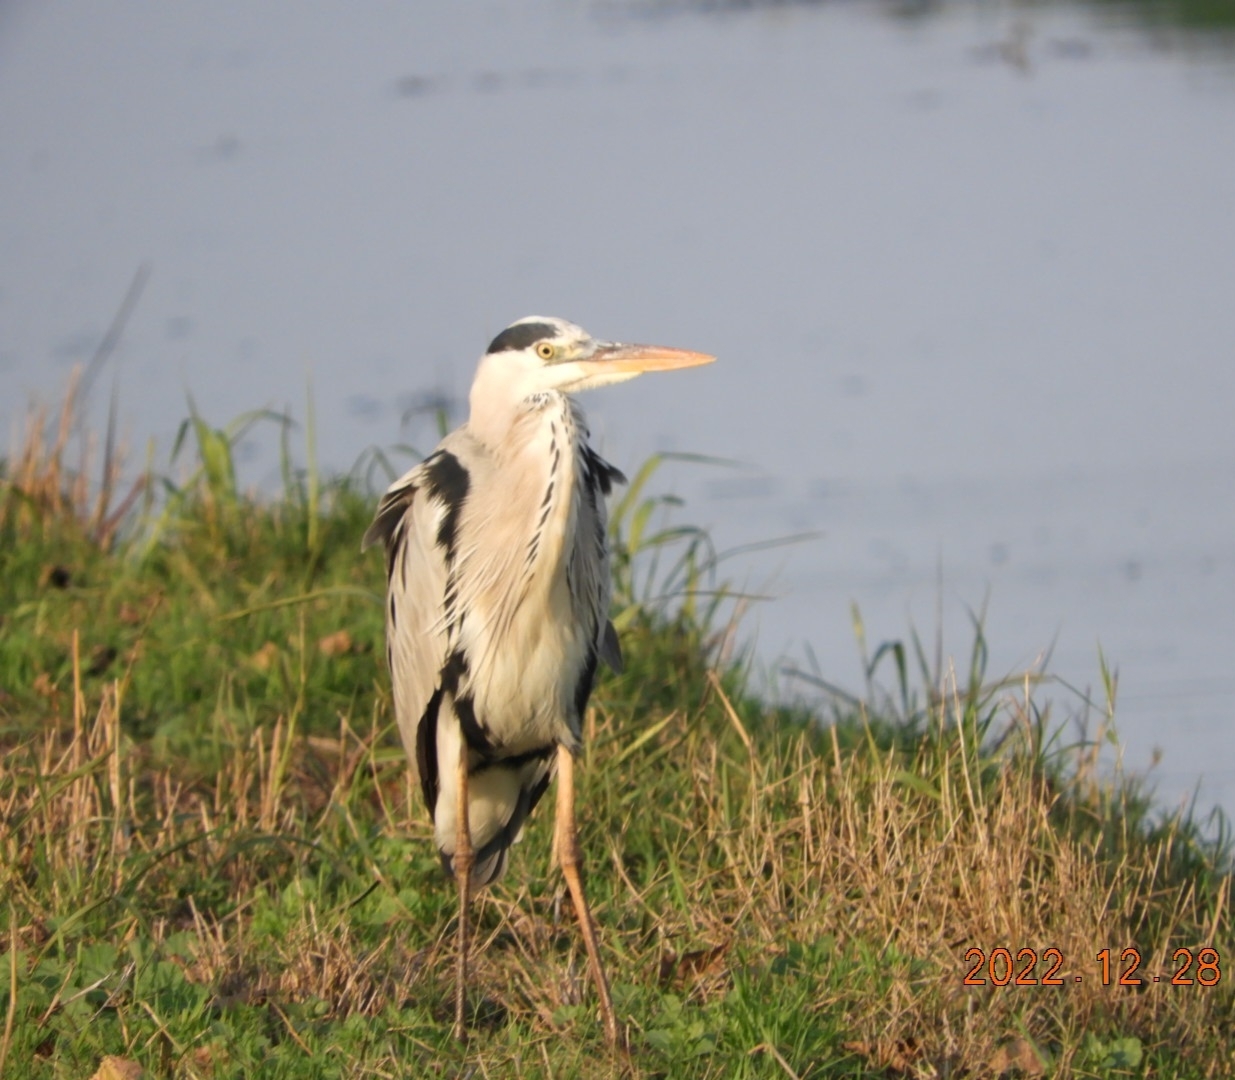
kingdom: Animalia
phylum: Chordata
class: Aves
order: Pelecaniformes
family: Ardeidae
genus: Ardea
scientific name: Ardea cinerea
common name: Grey heron
